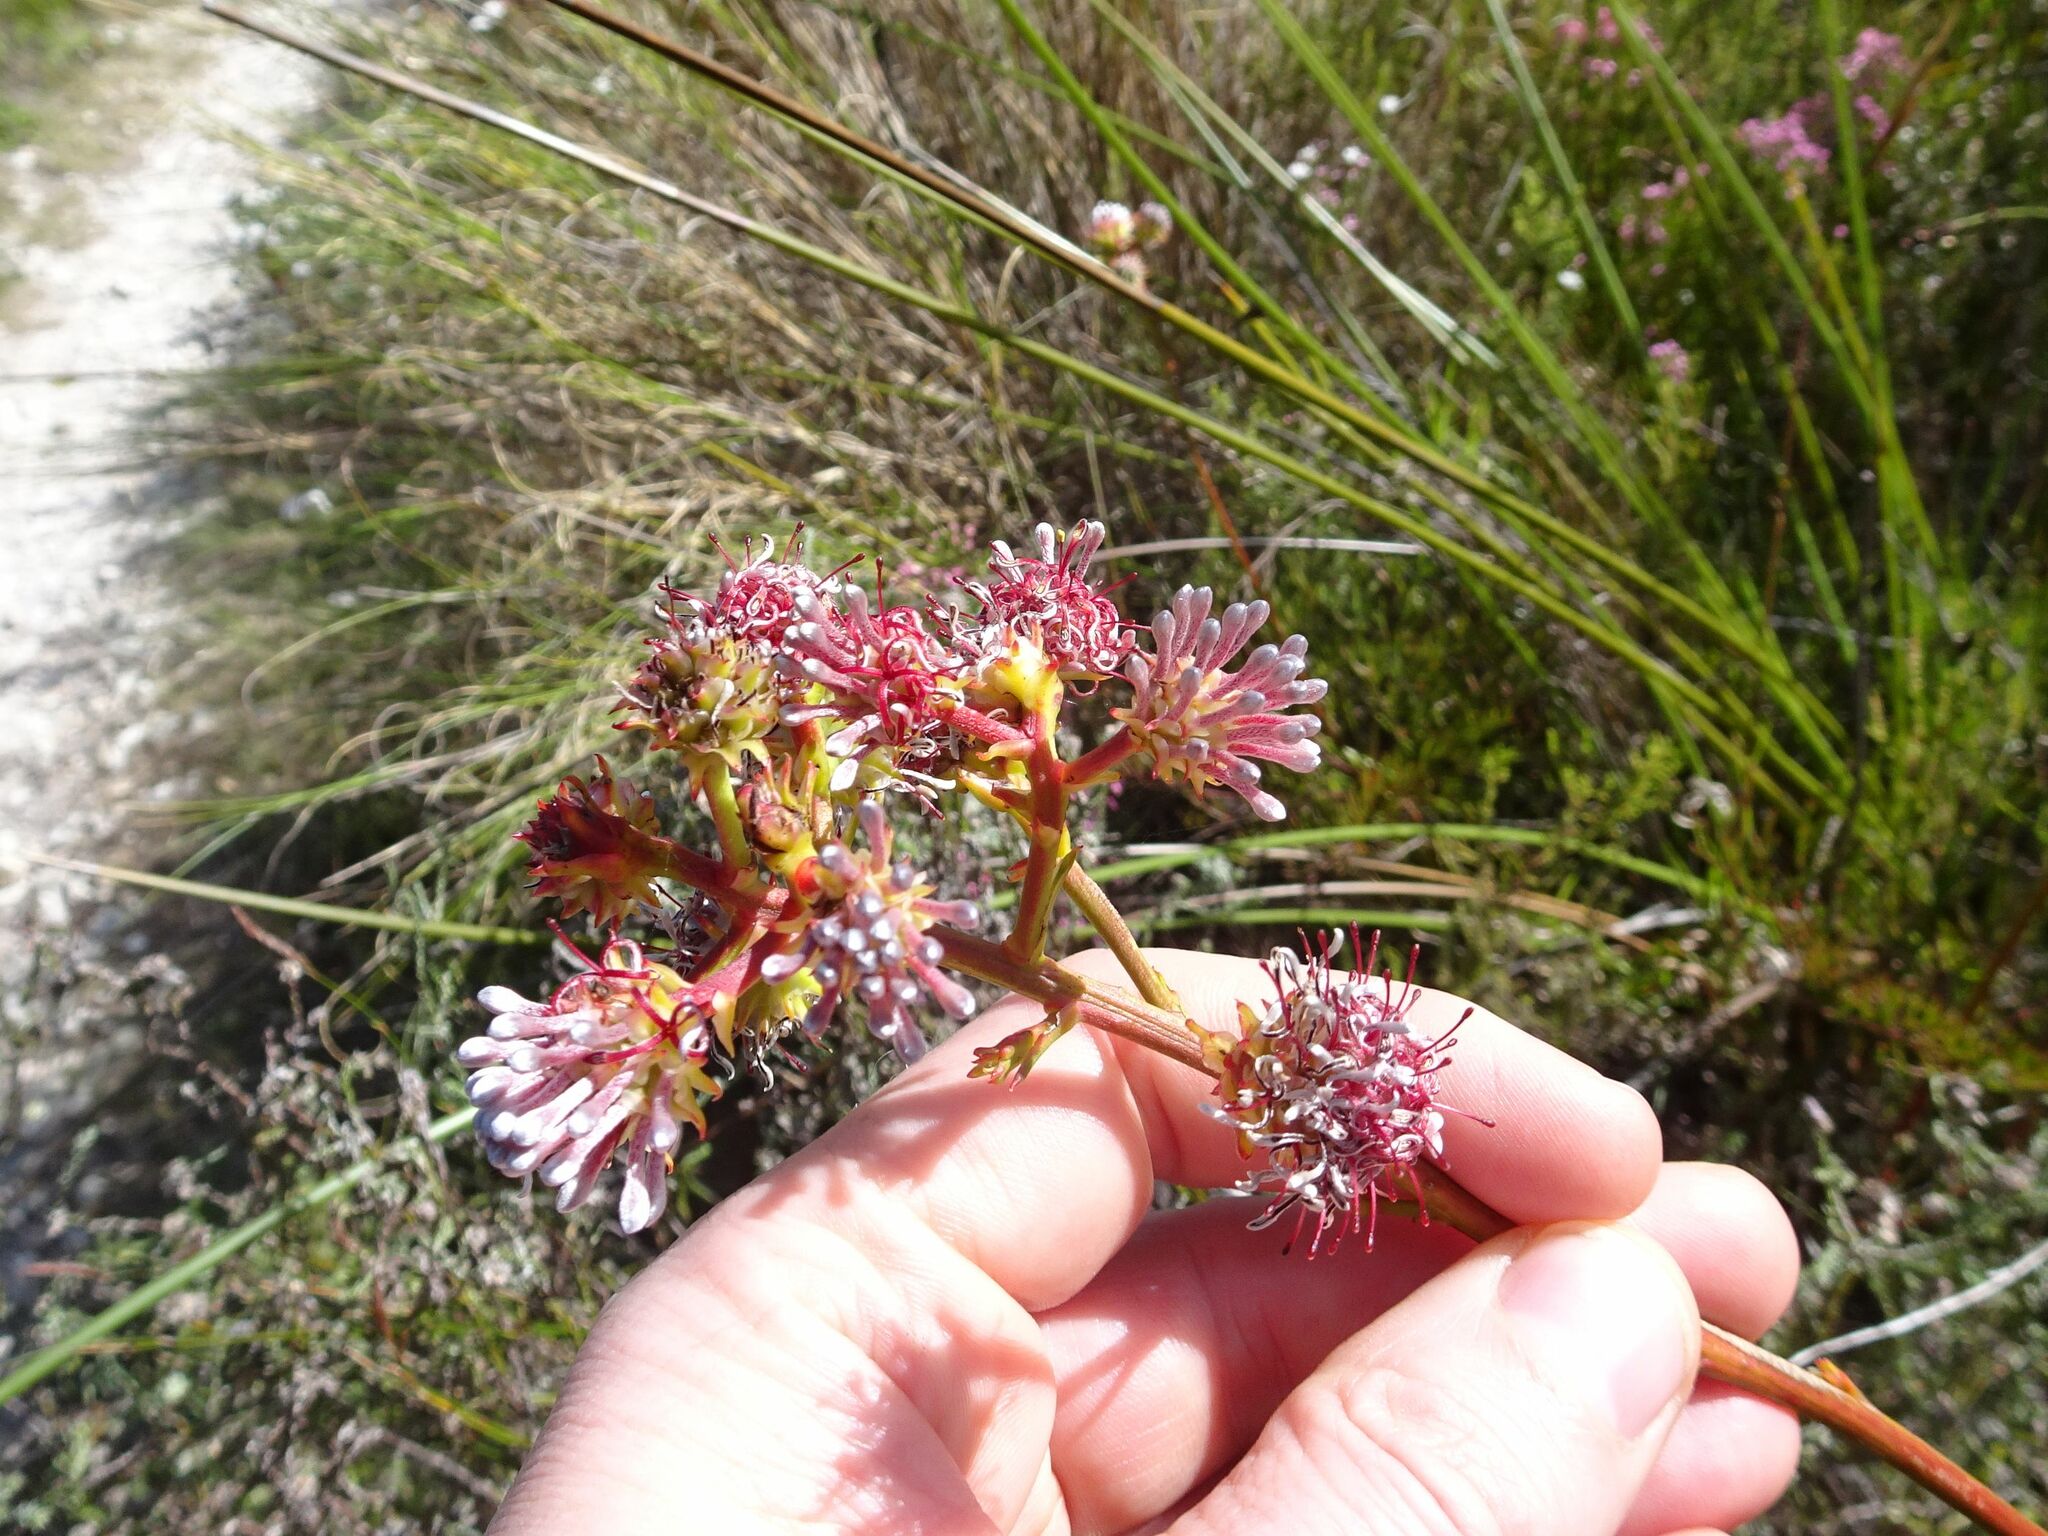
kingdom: Plantae
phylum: Tracheophyta
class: Magnoliopsida
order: Proteales
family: Proteaceae
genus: Serruria
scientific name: Serruria elongata
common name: Long-stalk spiderhead
